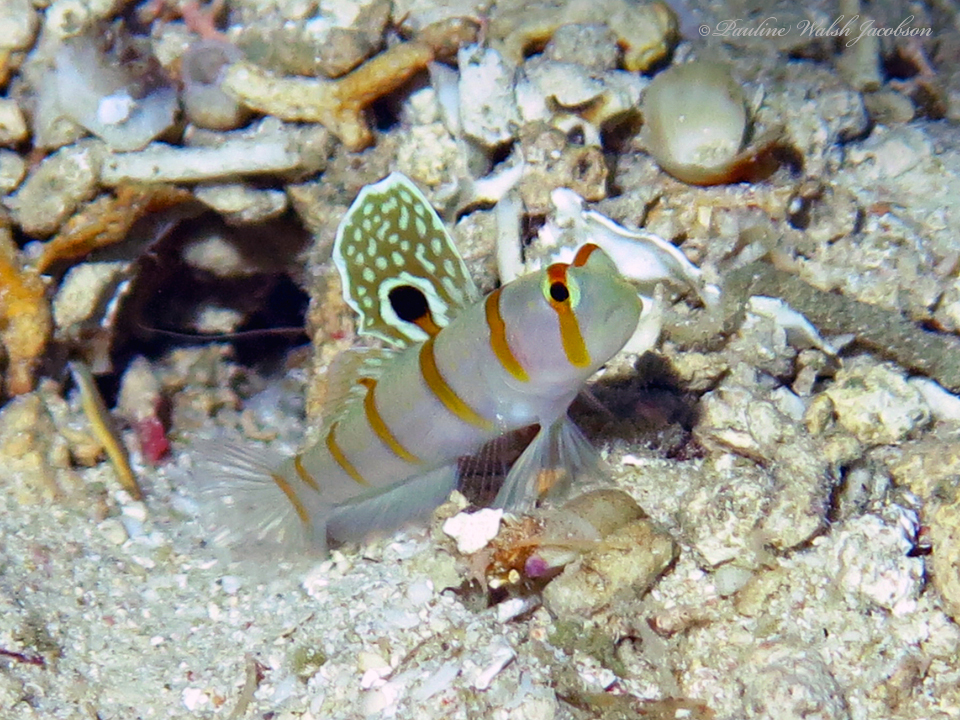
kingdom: Animalia
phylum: Chordata
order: Perciformes
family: Gobiidae
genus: Amblyeleotris
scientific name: Amblyeleotris randalli
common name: Gold-barred shrimp-goby
